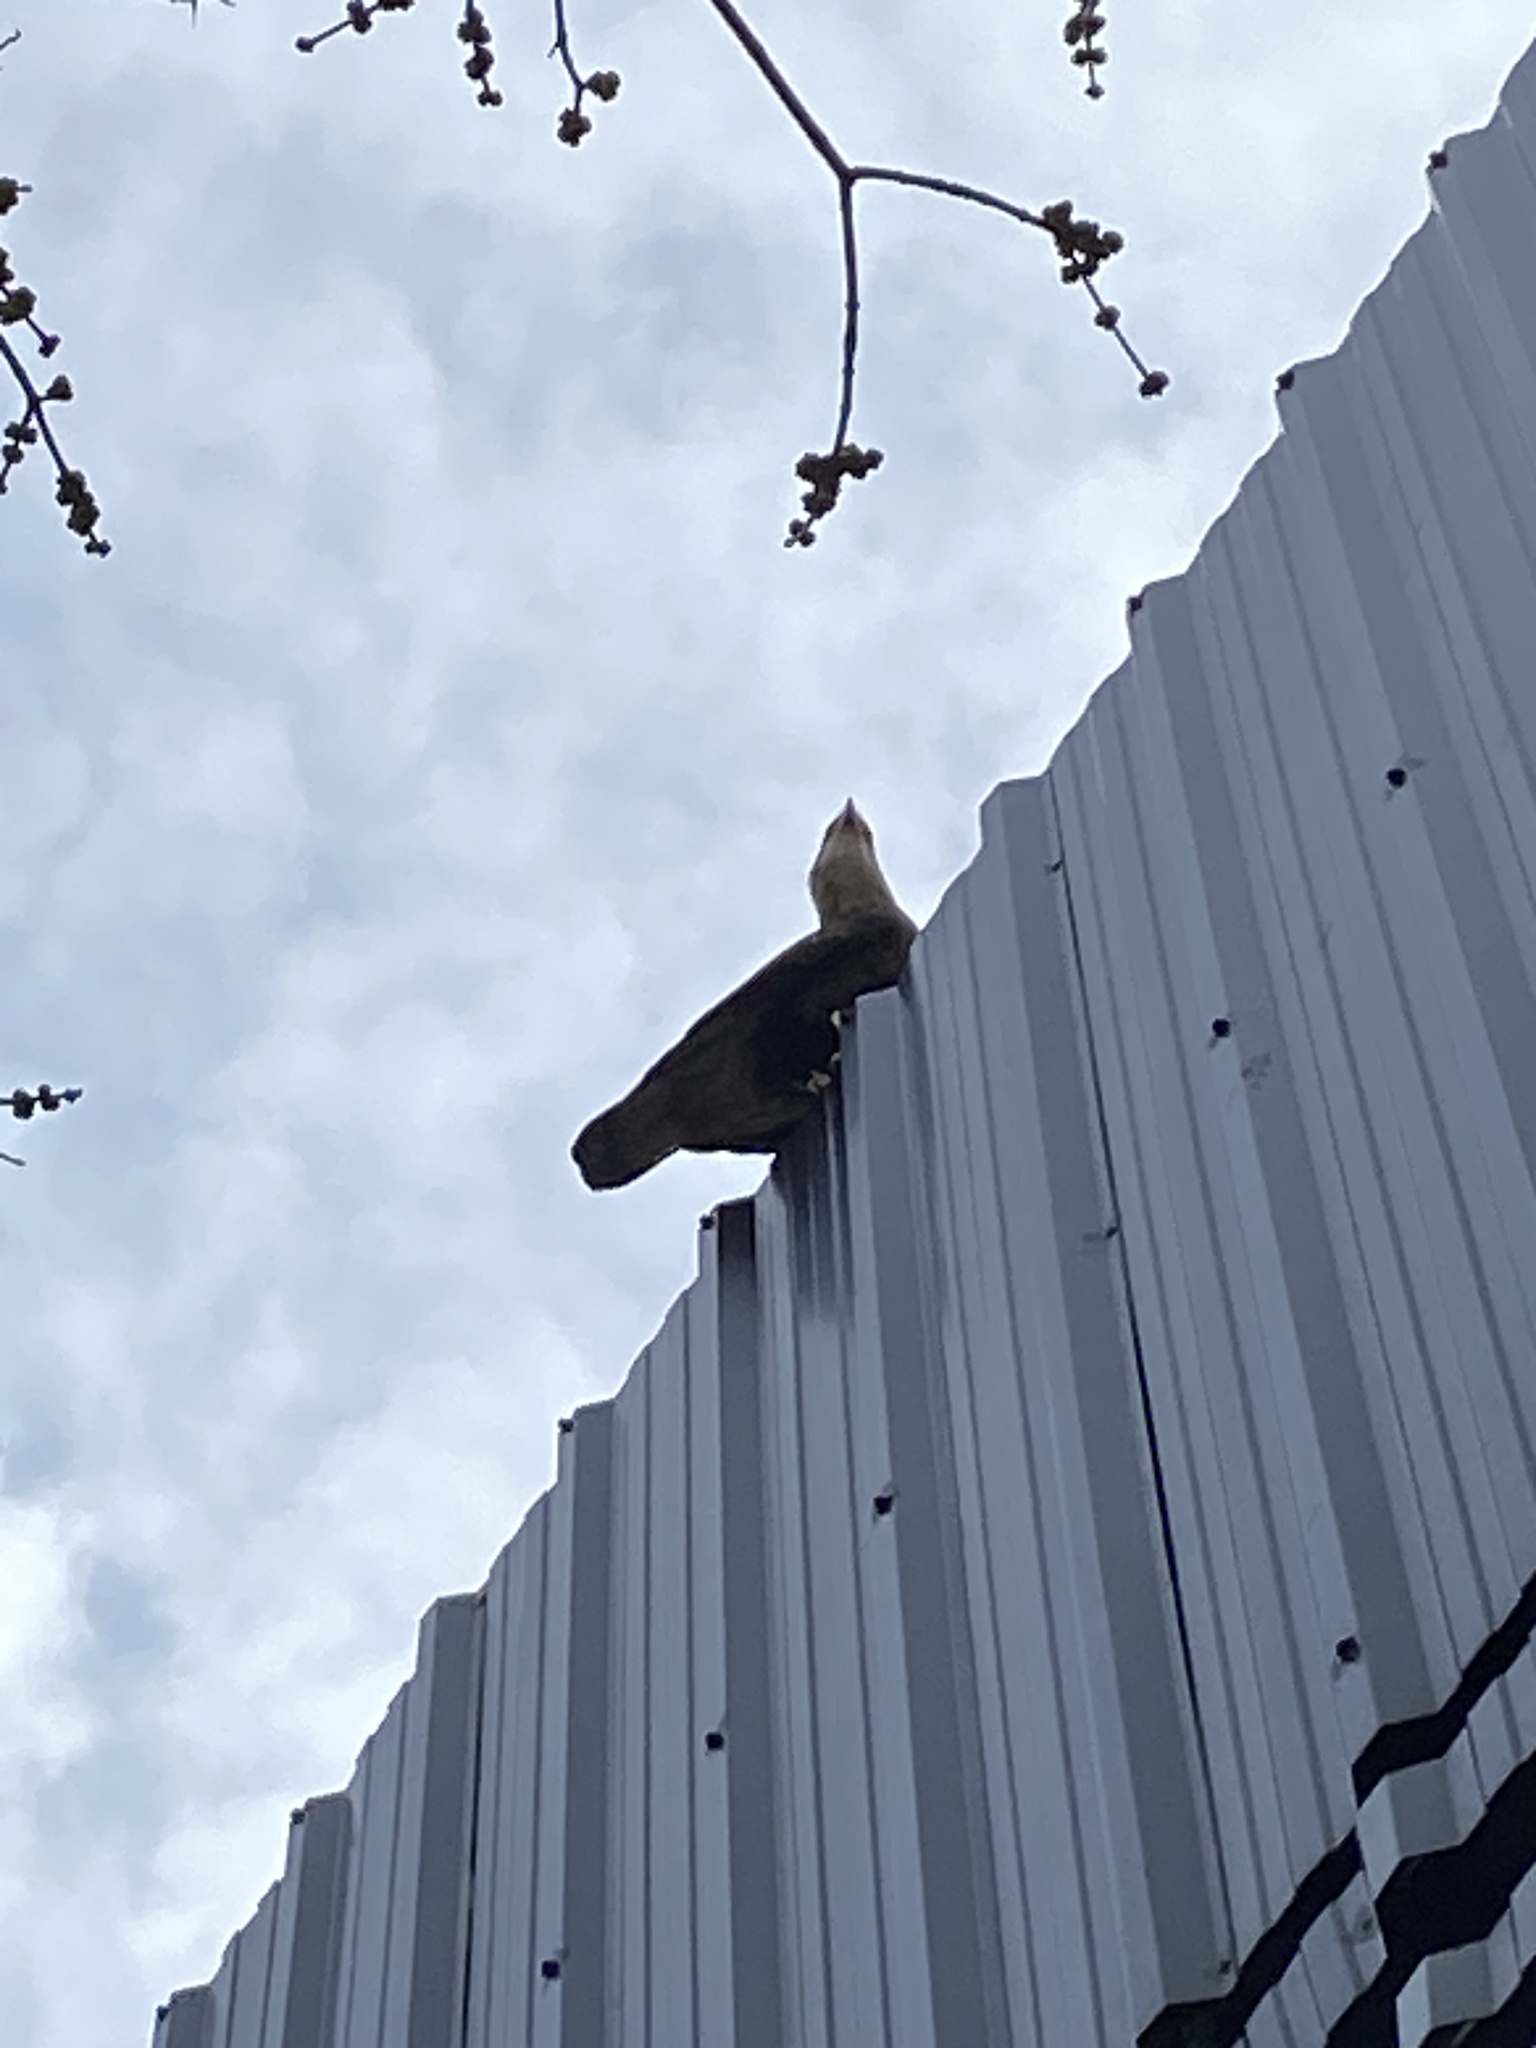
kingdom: Animalia
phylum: Chordata
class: Aves
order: Falconiformes
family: Falconidae
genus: Caracara
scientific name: Caracara plancus
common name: Southern caracara
